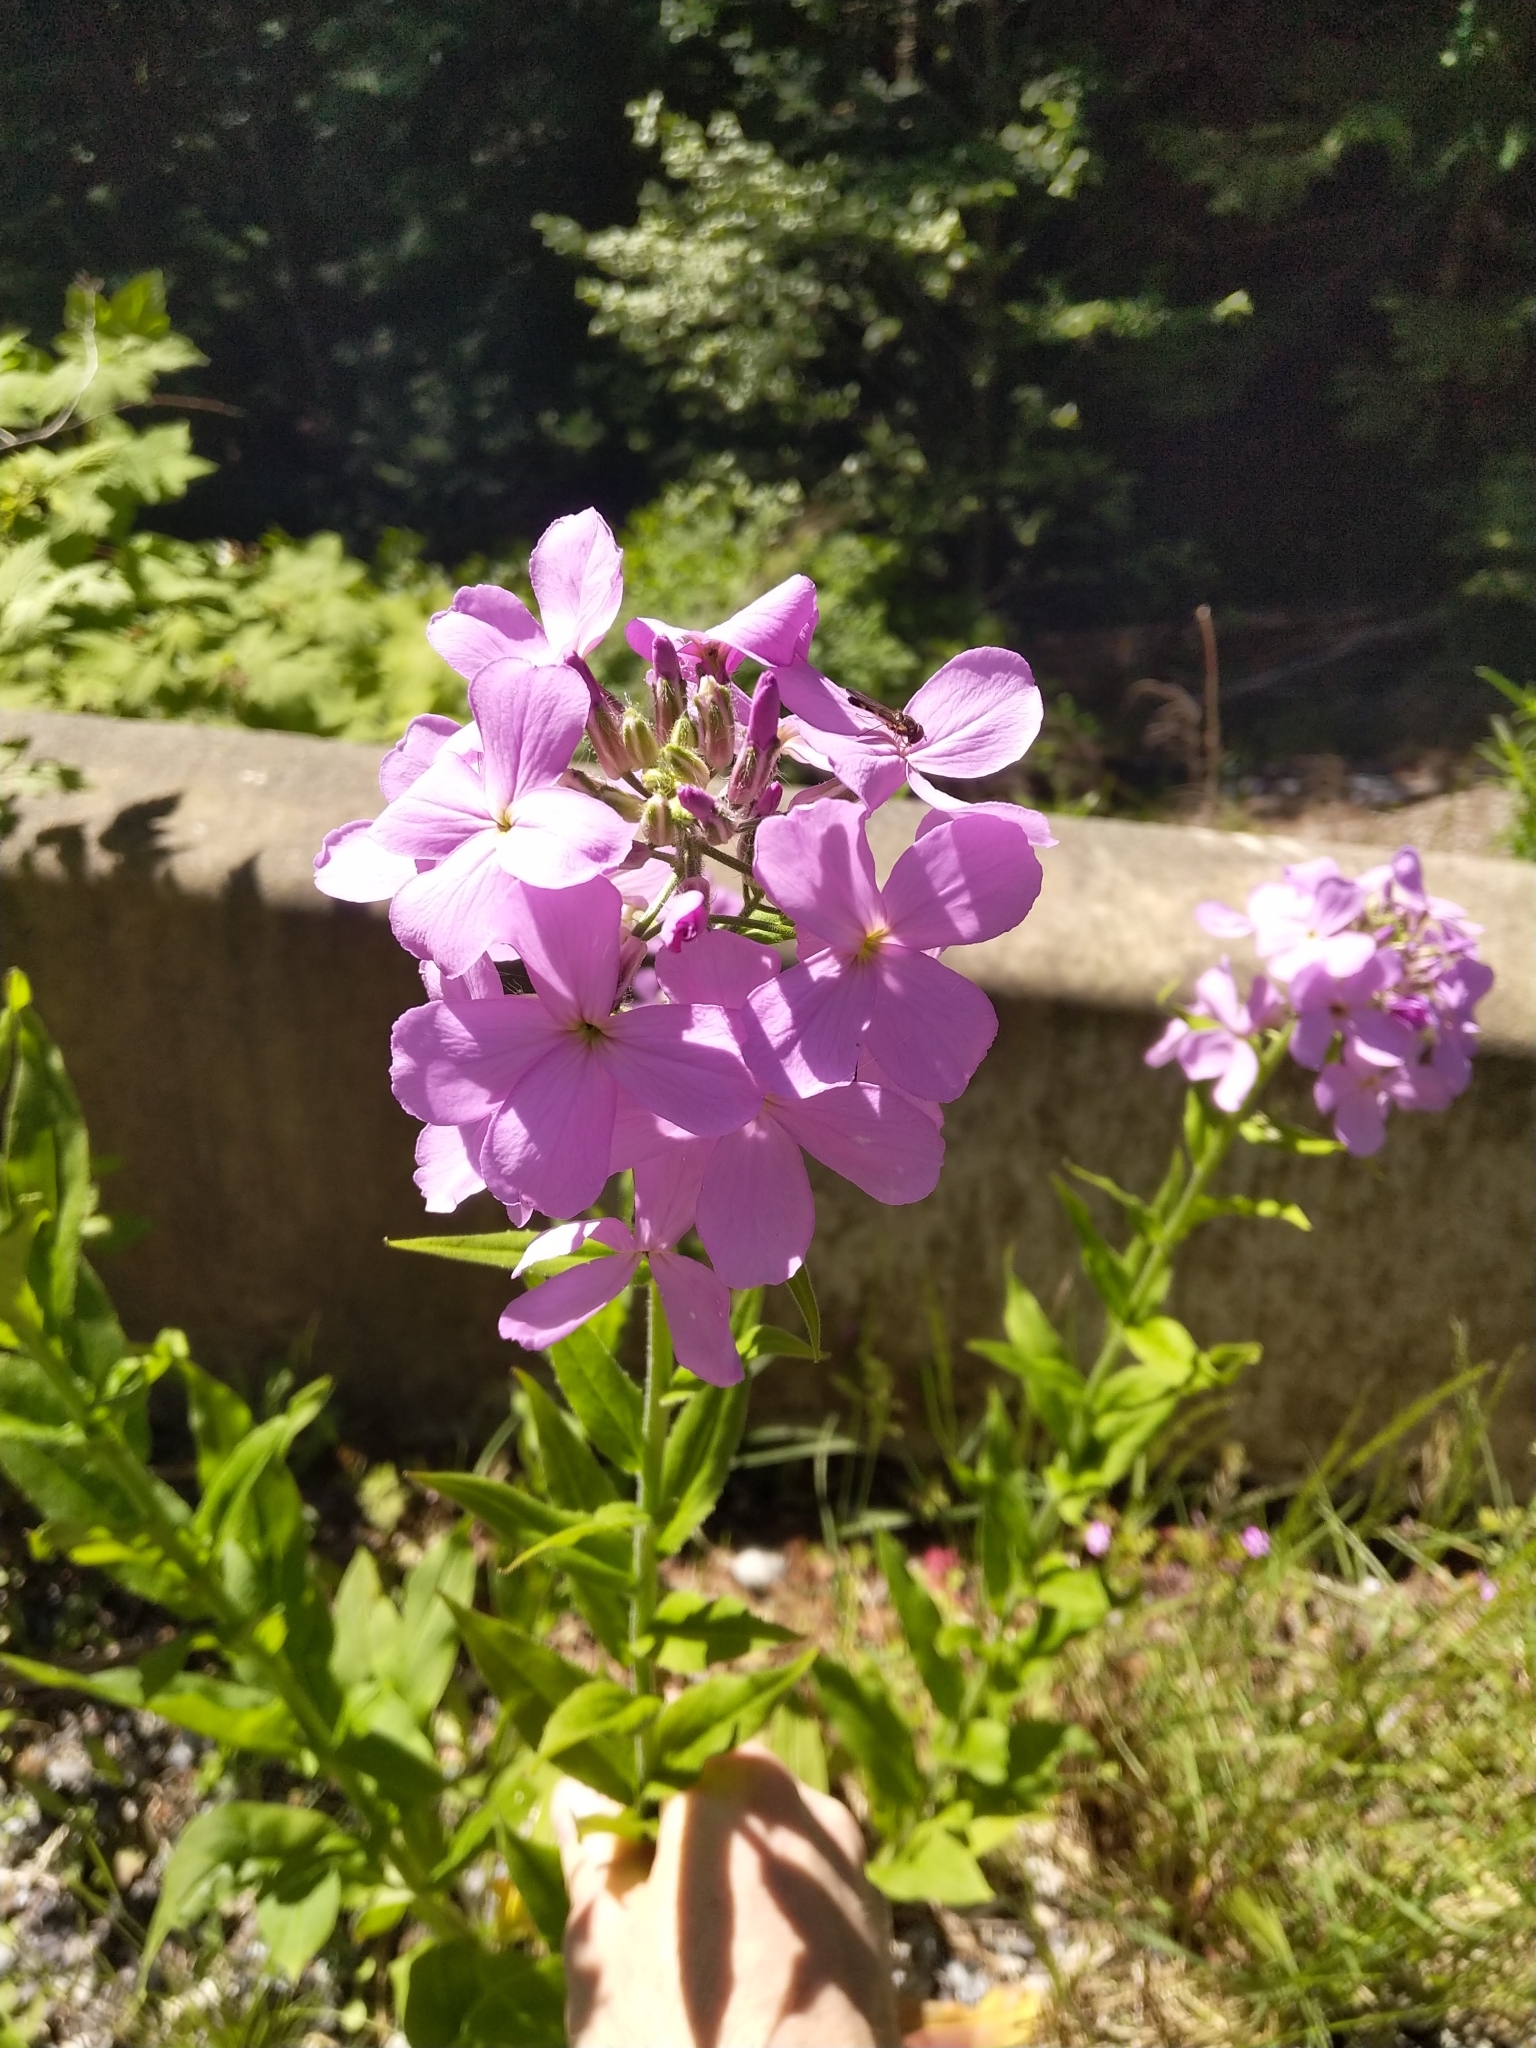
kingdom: Plantae
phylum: Tracheophyta
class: Magnoliopsida
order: Brassicales
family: Brassicaceae
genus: Hesperis
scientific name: Hesperis matronalis
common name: Dame's-violet
